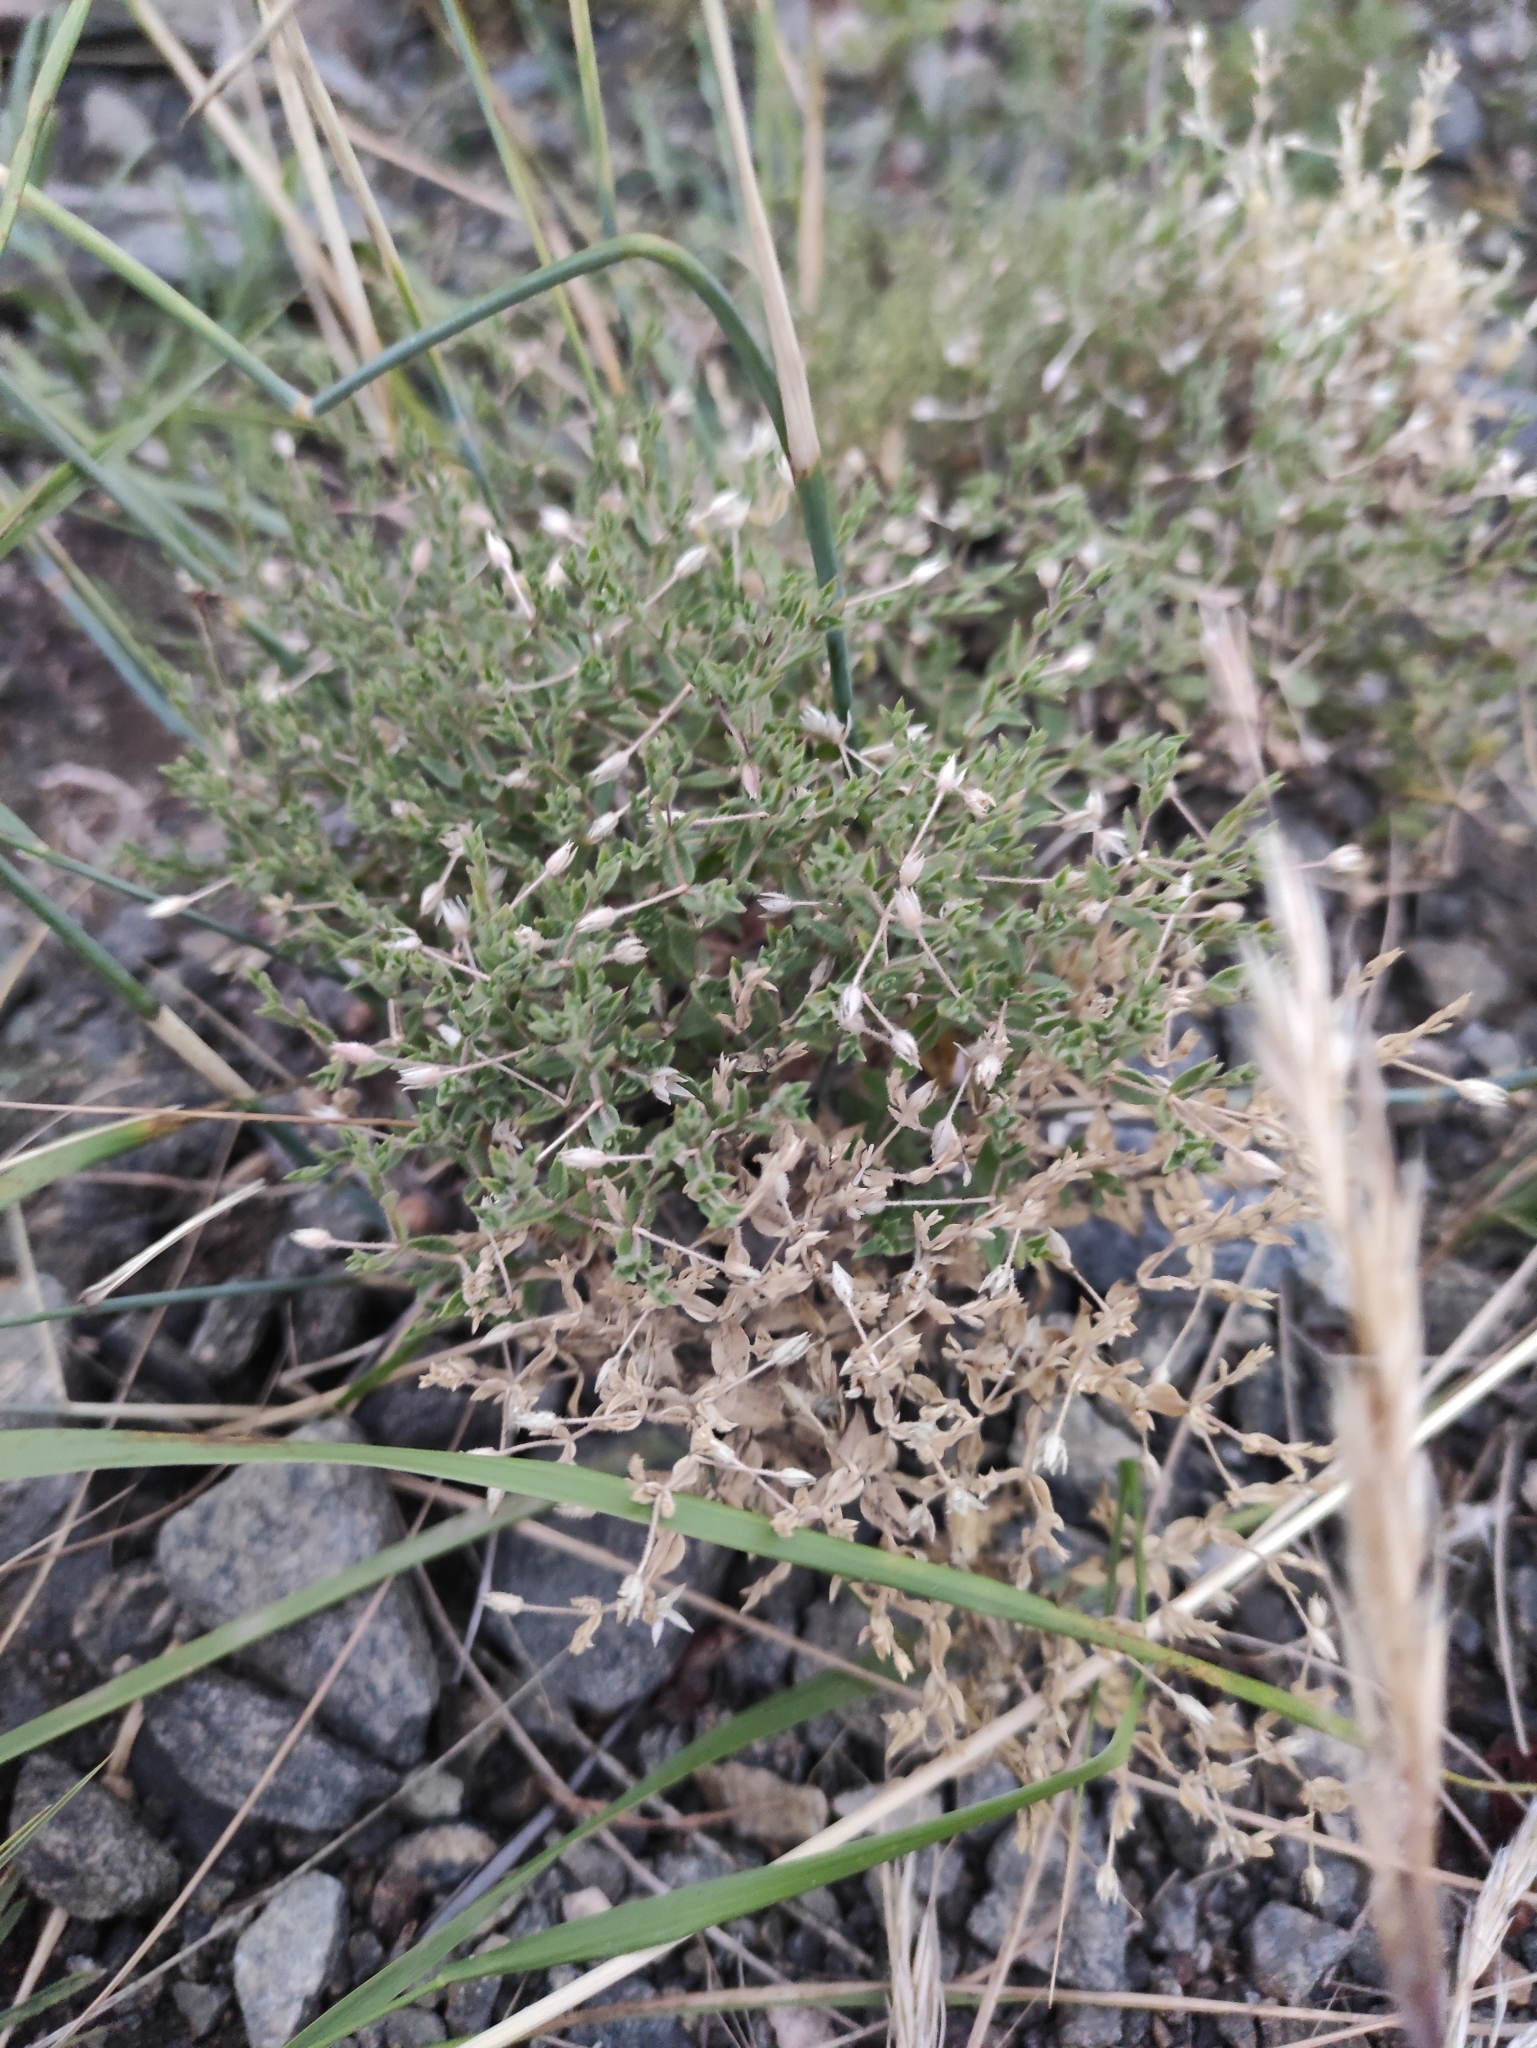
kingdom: Plantae
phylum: Tracheophyta
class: Magnoliopsida
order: Caryophyllales
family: Caryophyllaceae
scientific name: Caryophyllaceae
